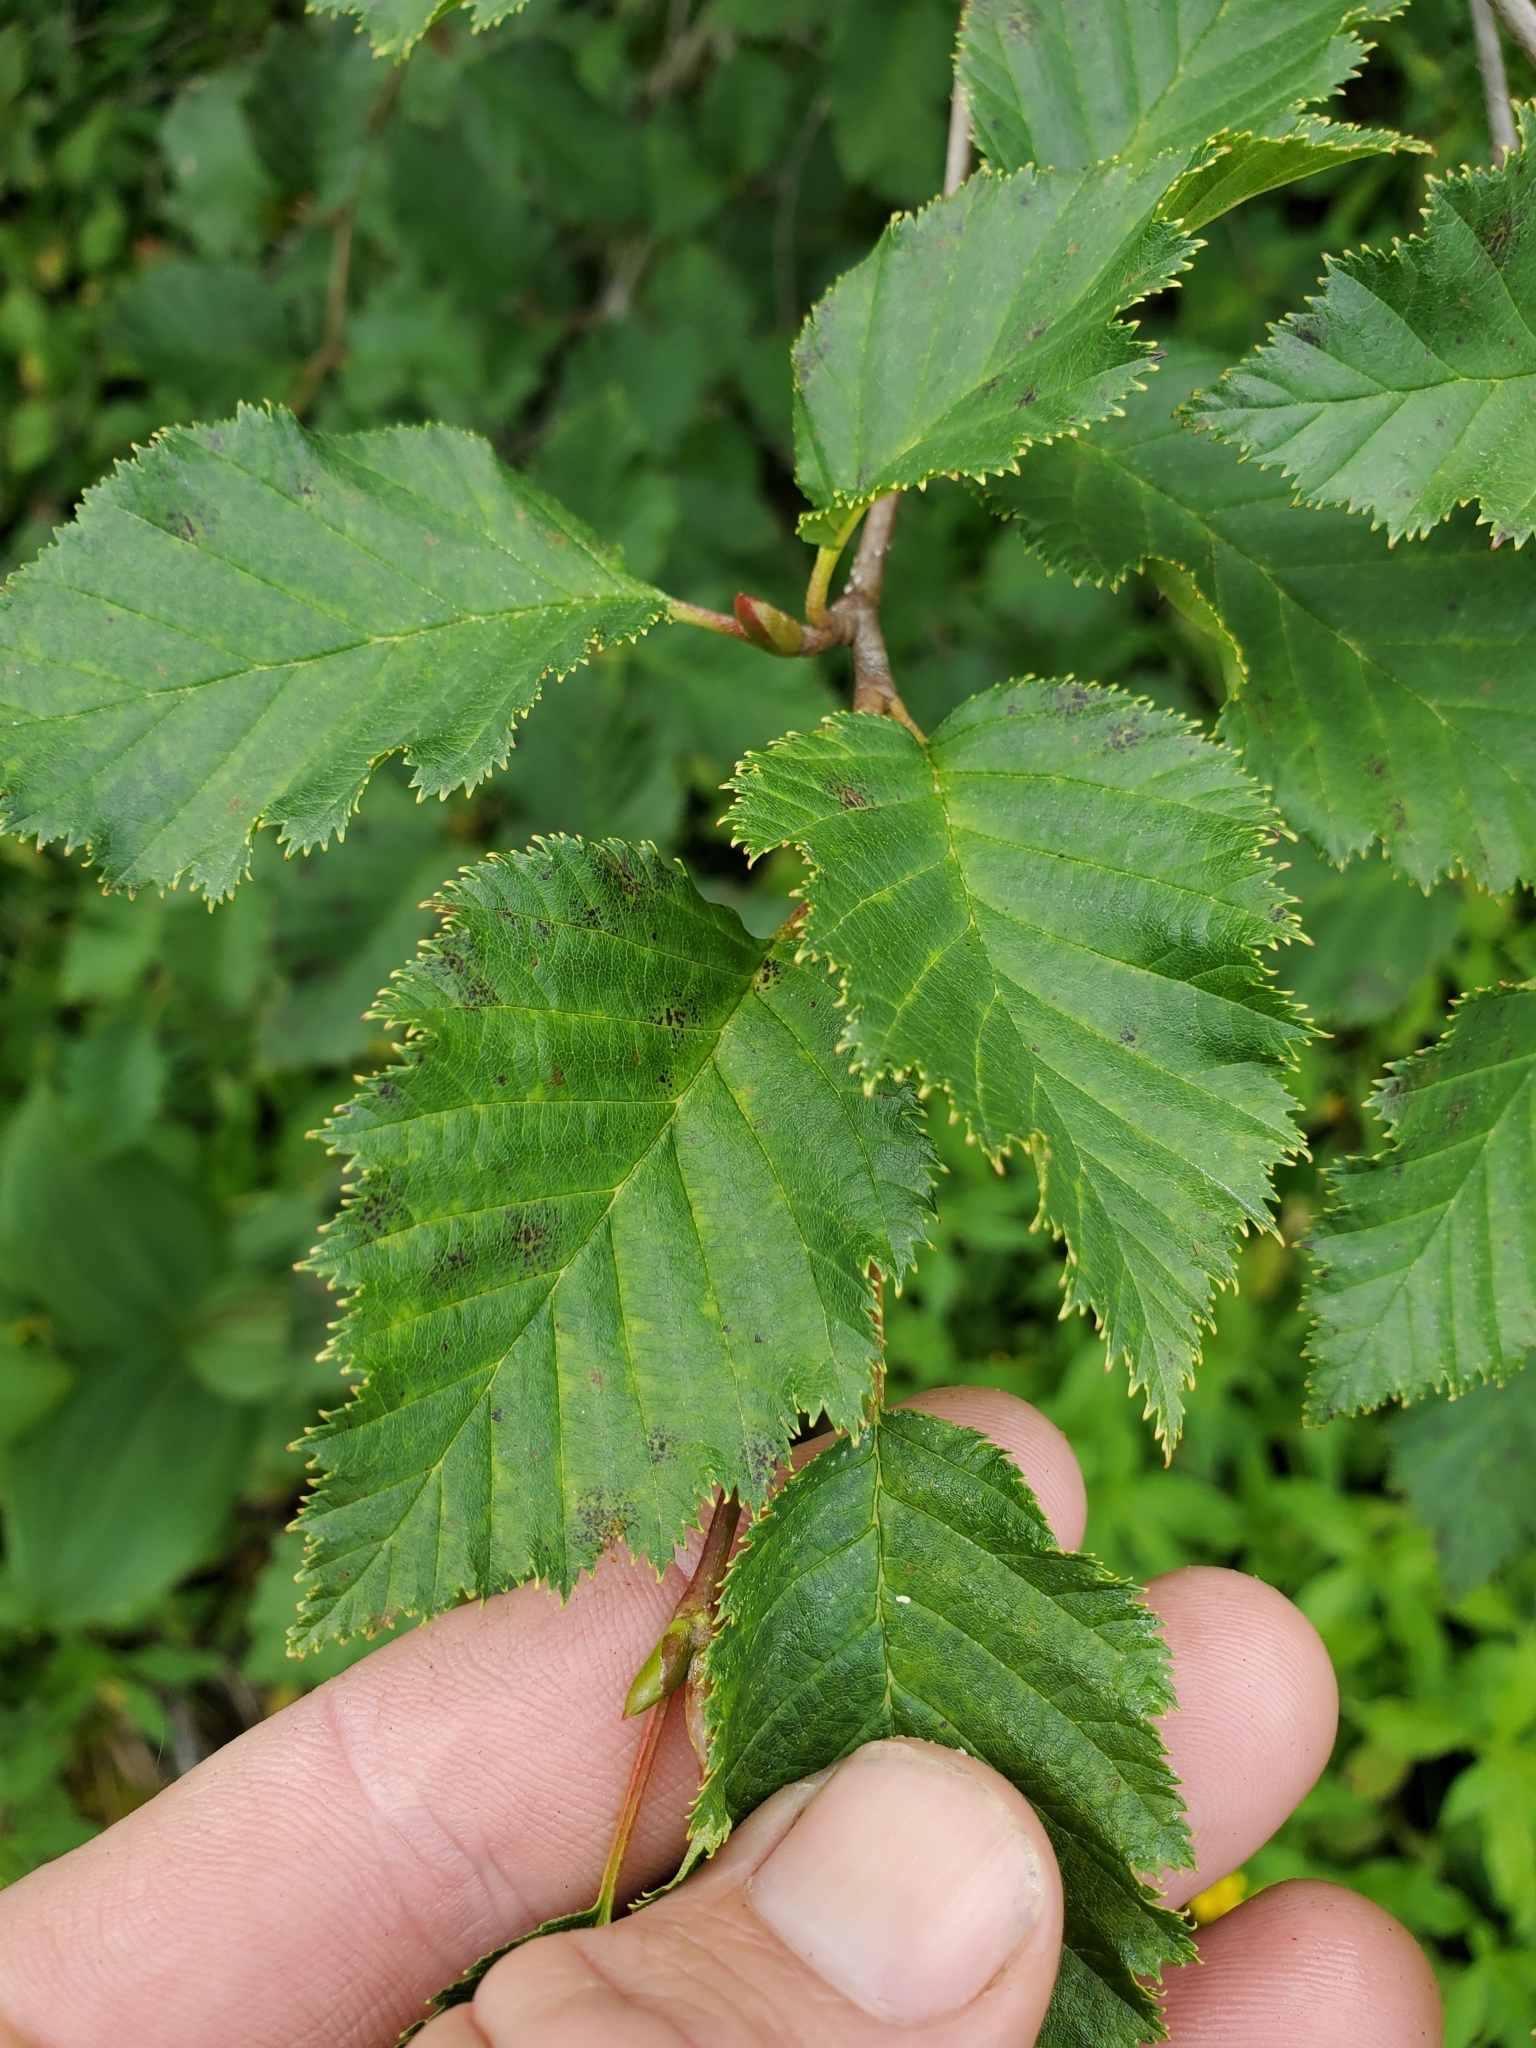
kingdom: Plantae
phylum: Tracheophyta
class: Magnoliopsida
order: Fagales
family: Betulaceae
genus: Alnus
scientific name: Alnus alnobetula
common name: Green alder
